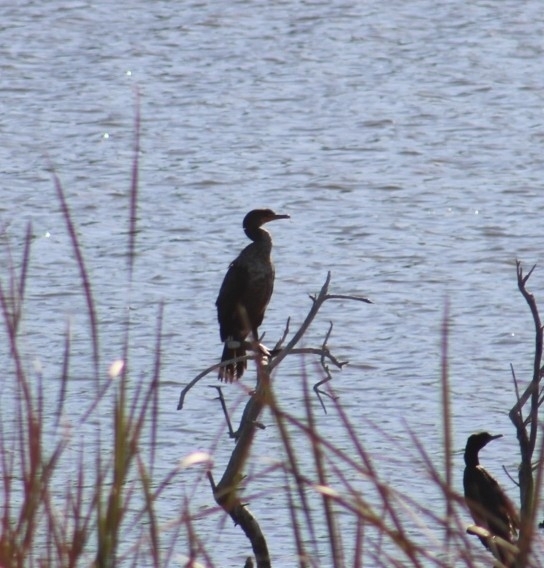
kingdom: Animalia
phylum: Chordata
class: Aves
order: Suliformes
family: Phalacrocoracidae
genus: Phalacrocorax
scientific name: Phalacrocorax auritus
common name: Double-crested cormorant
